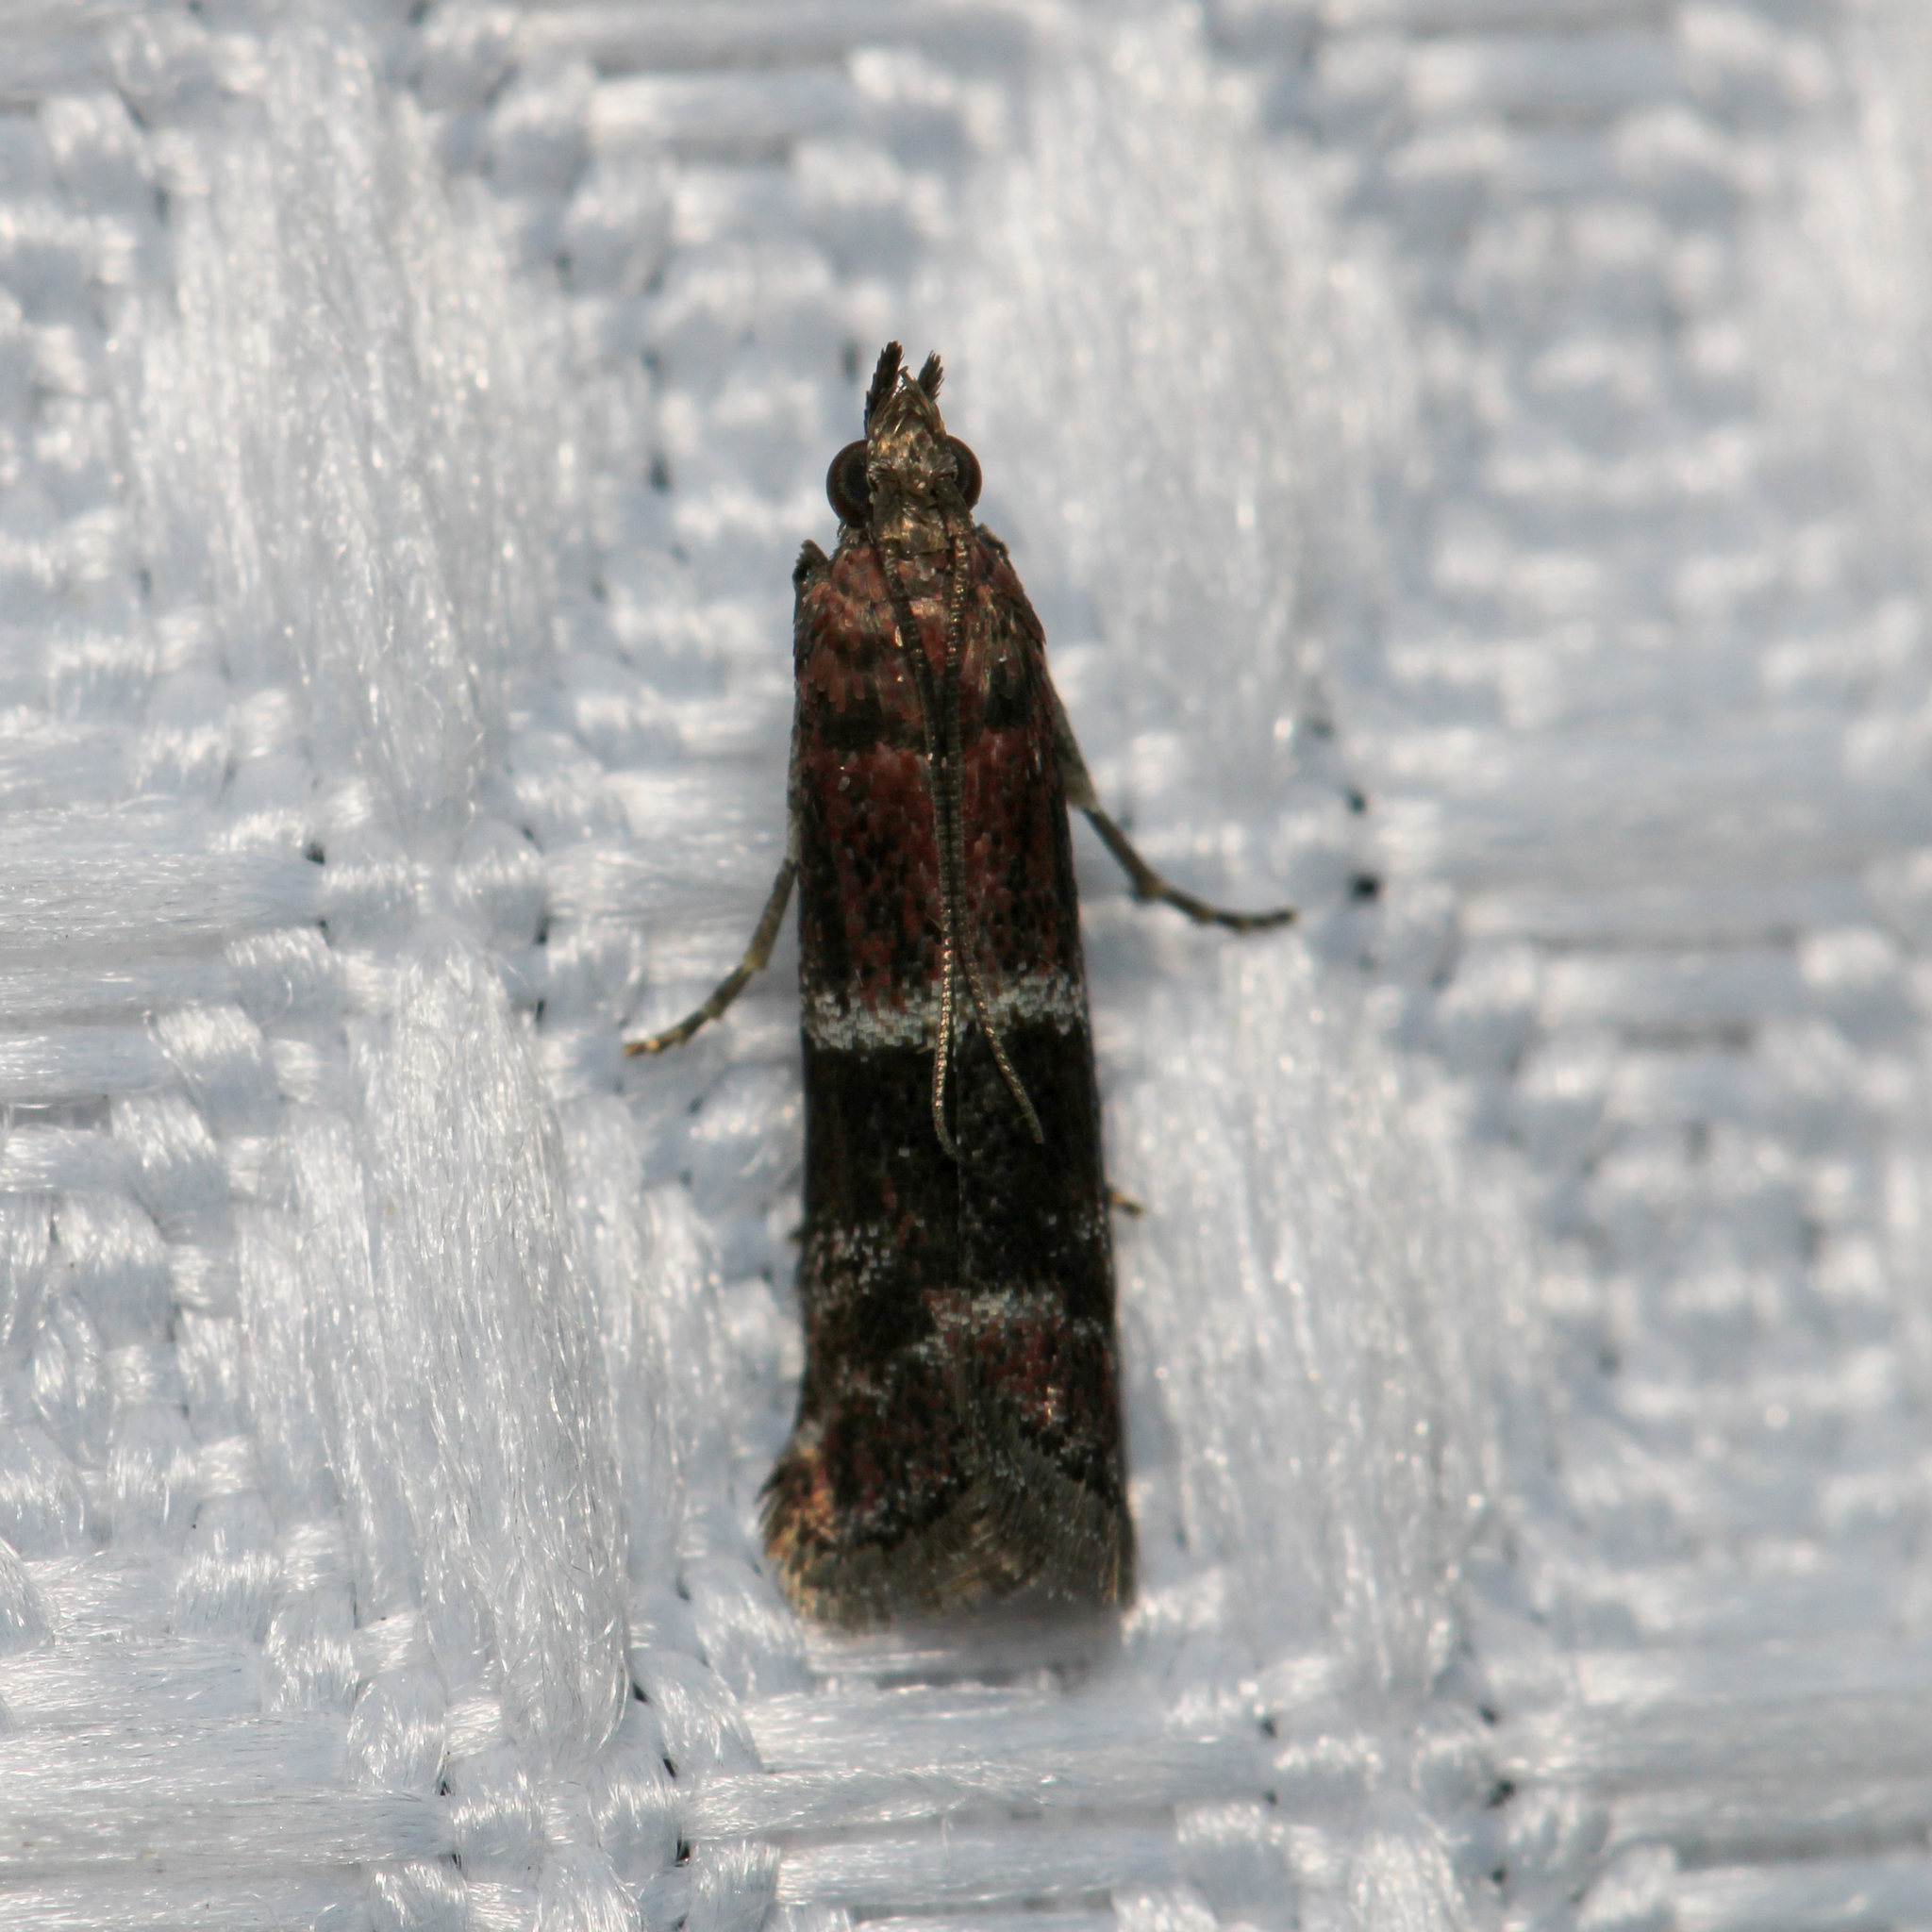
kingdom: Animalia
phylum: Arthropoda
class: Insecta
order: Lepidoptera
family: Pyralidae
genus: Moodna
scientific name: Moodna ostrinella
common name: Darker moodna moth
